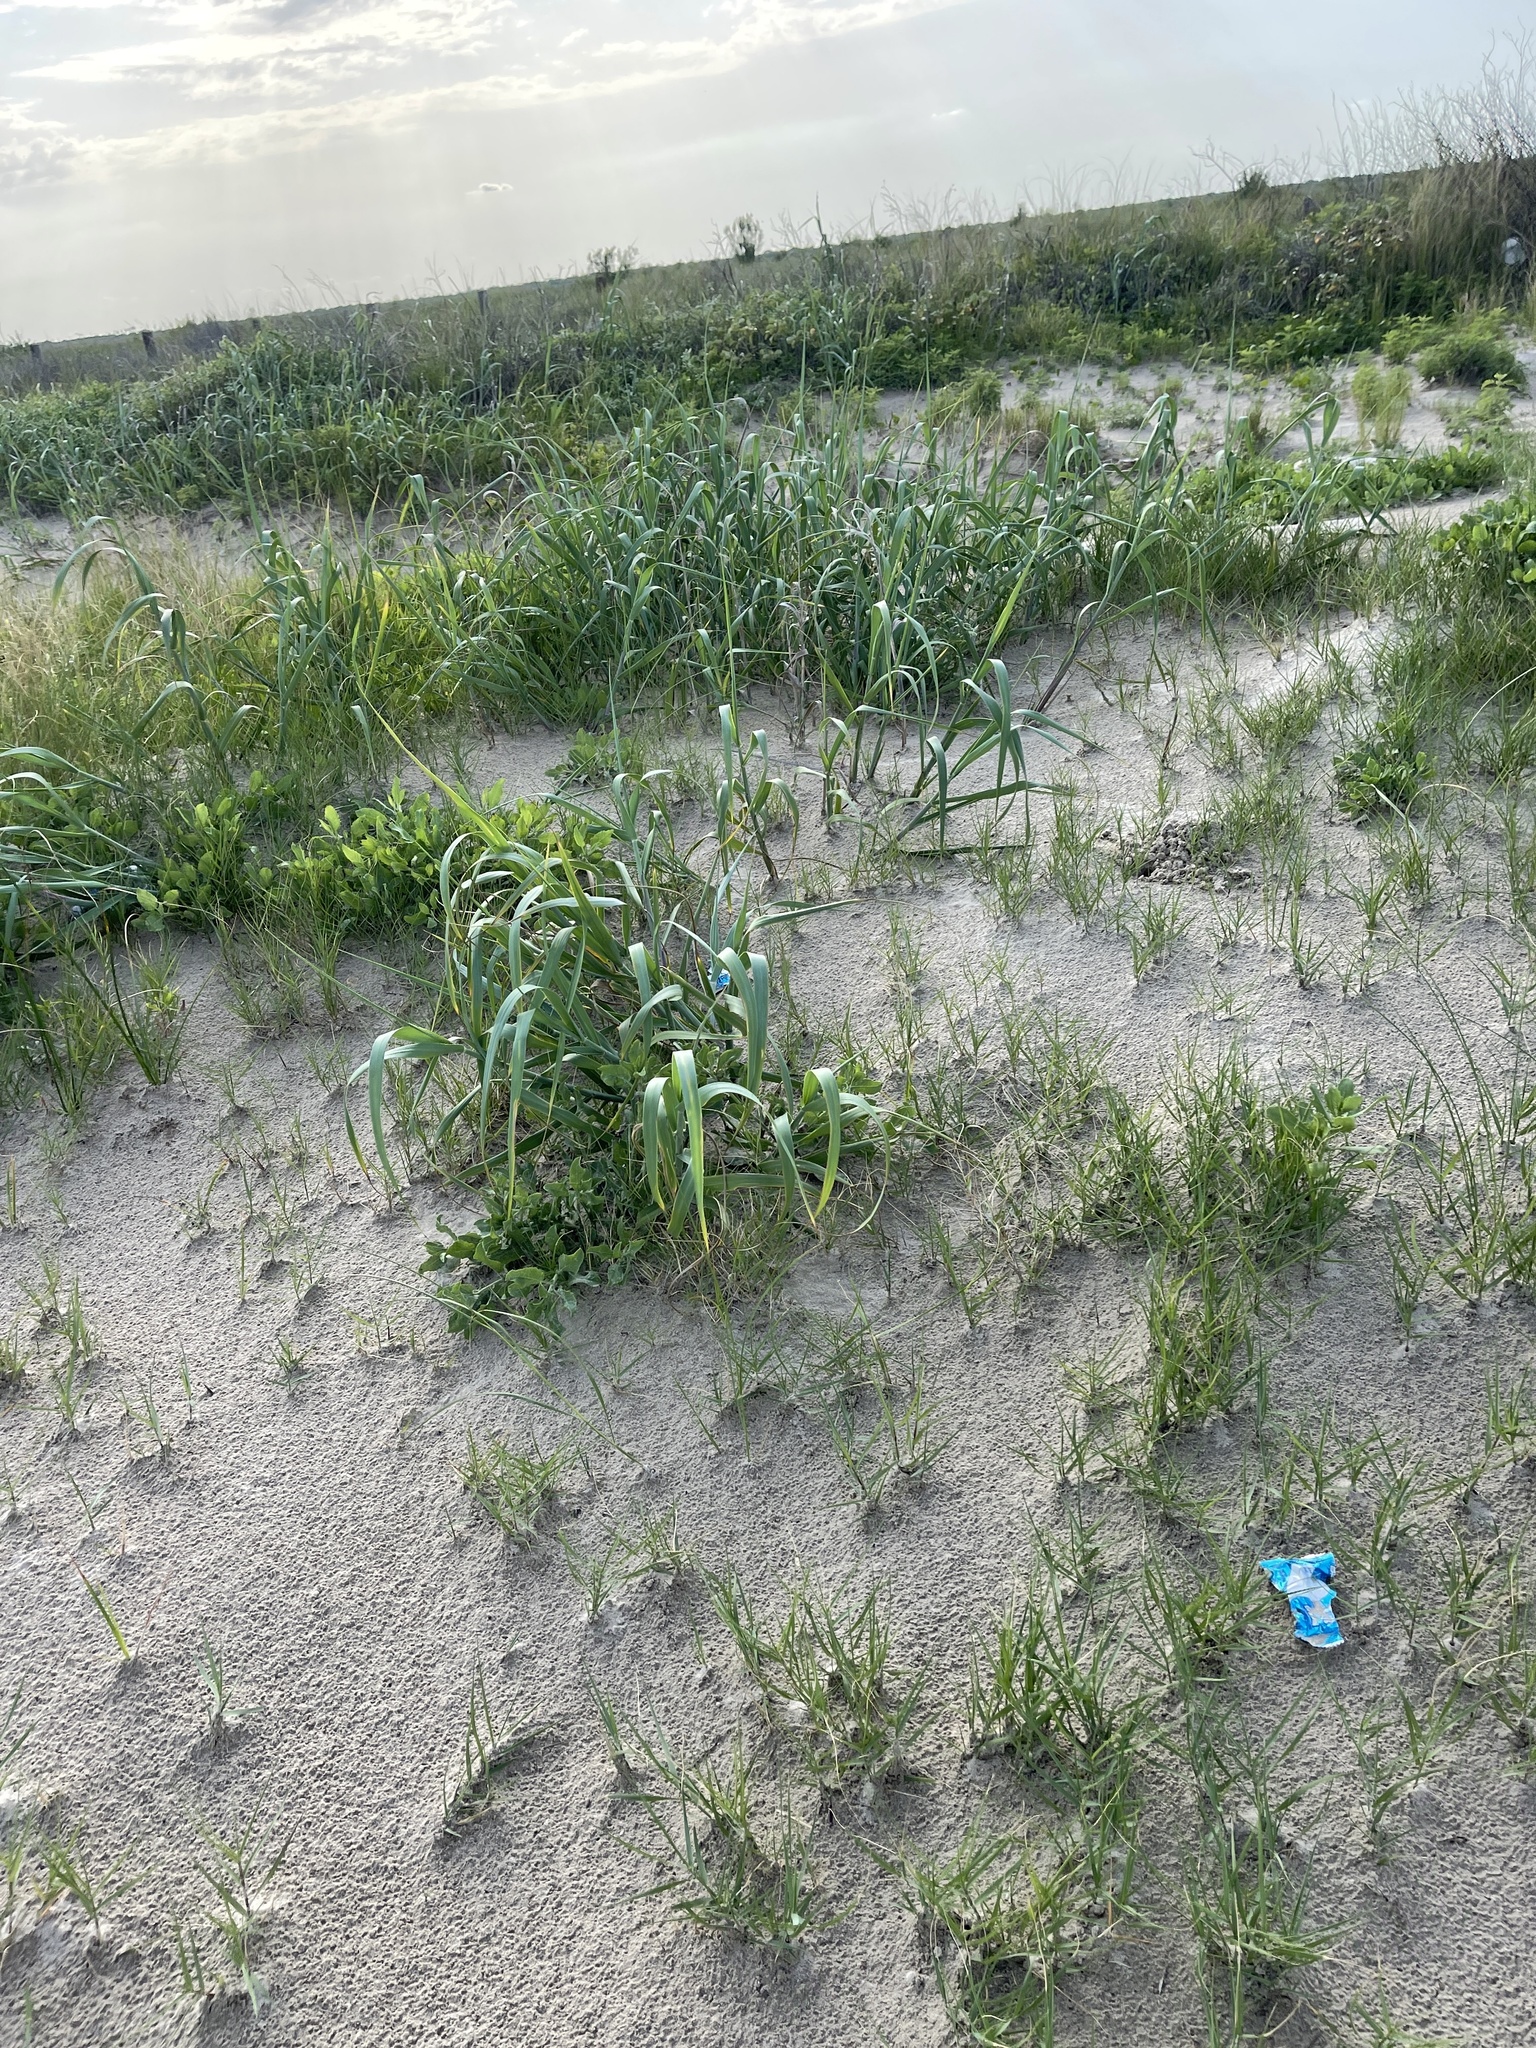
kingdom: Plantae
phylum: Tracheophyta
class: Liliopsida
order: Poales
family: Poaceae
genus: Panicum
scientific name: Panicum amarum
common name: Bitter panicum
